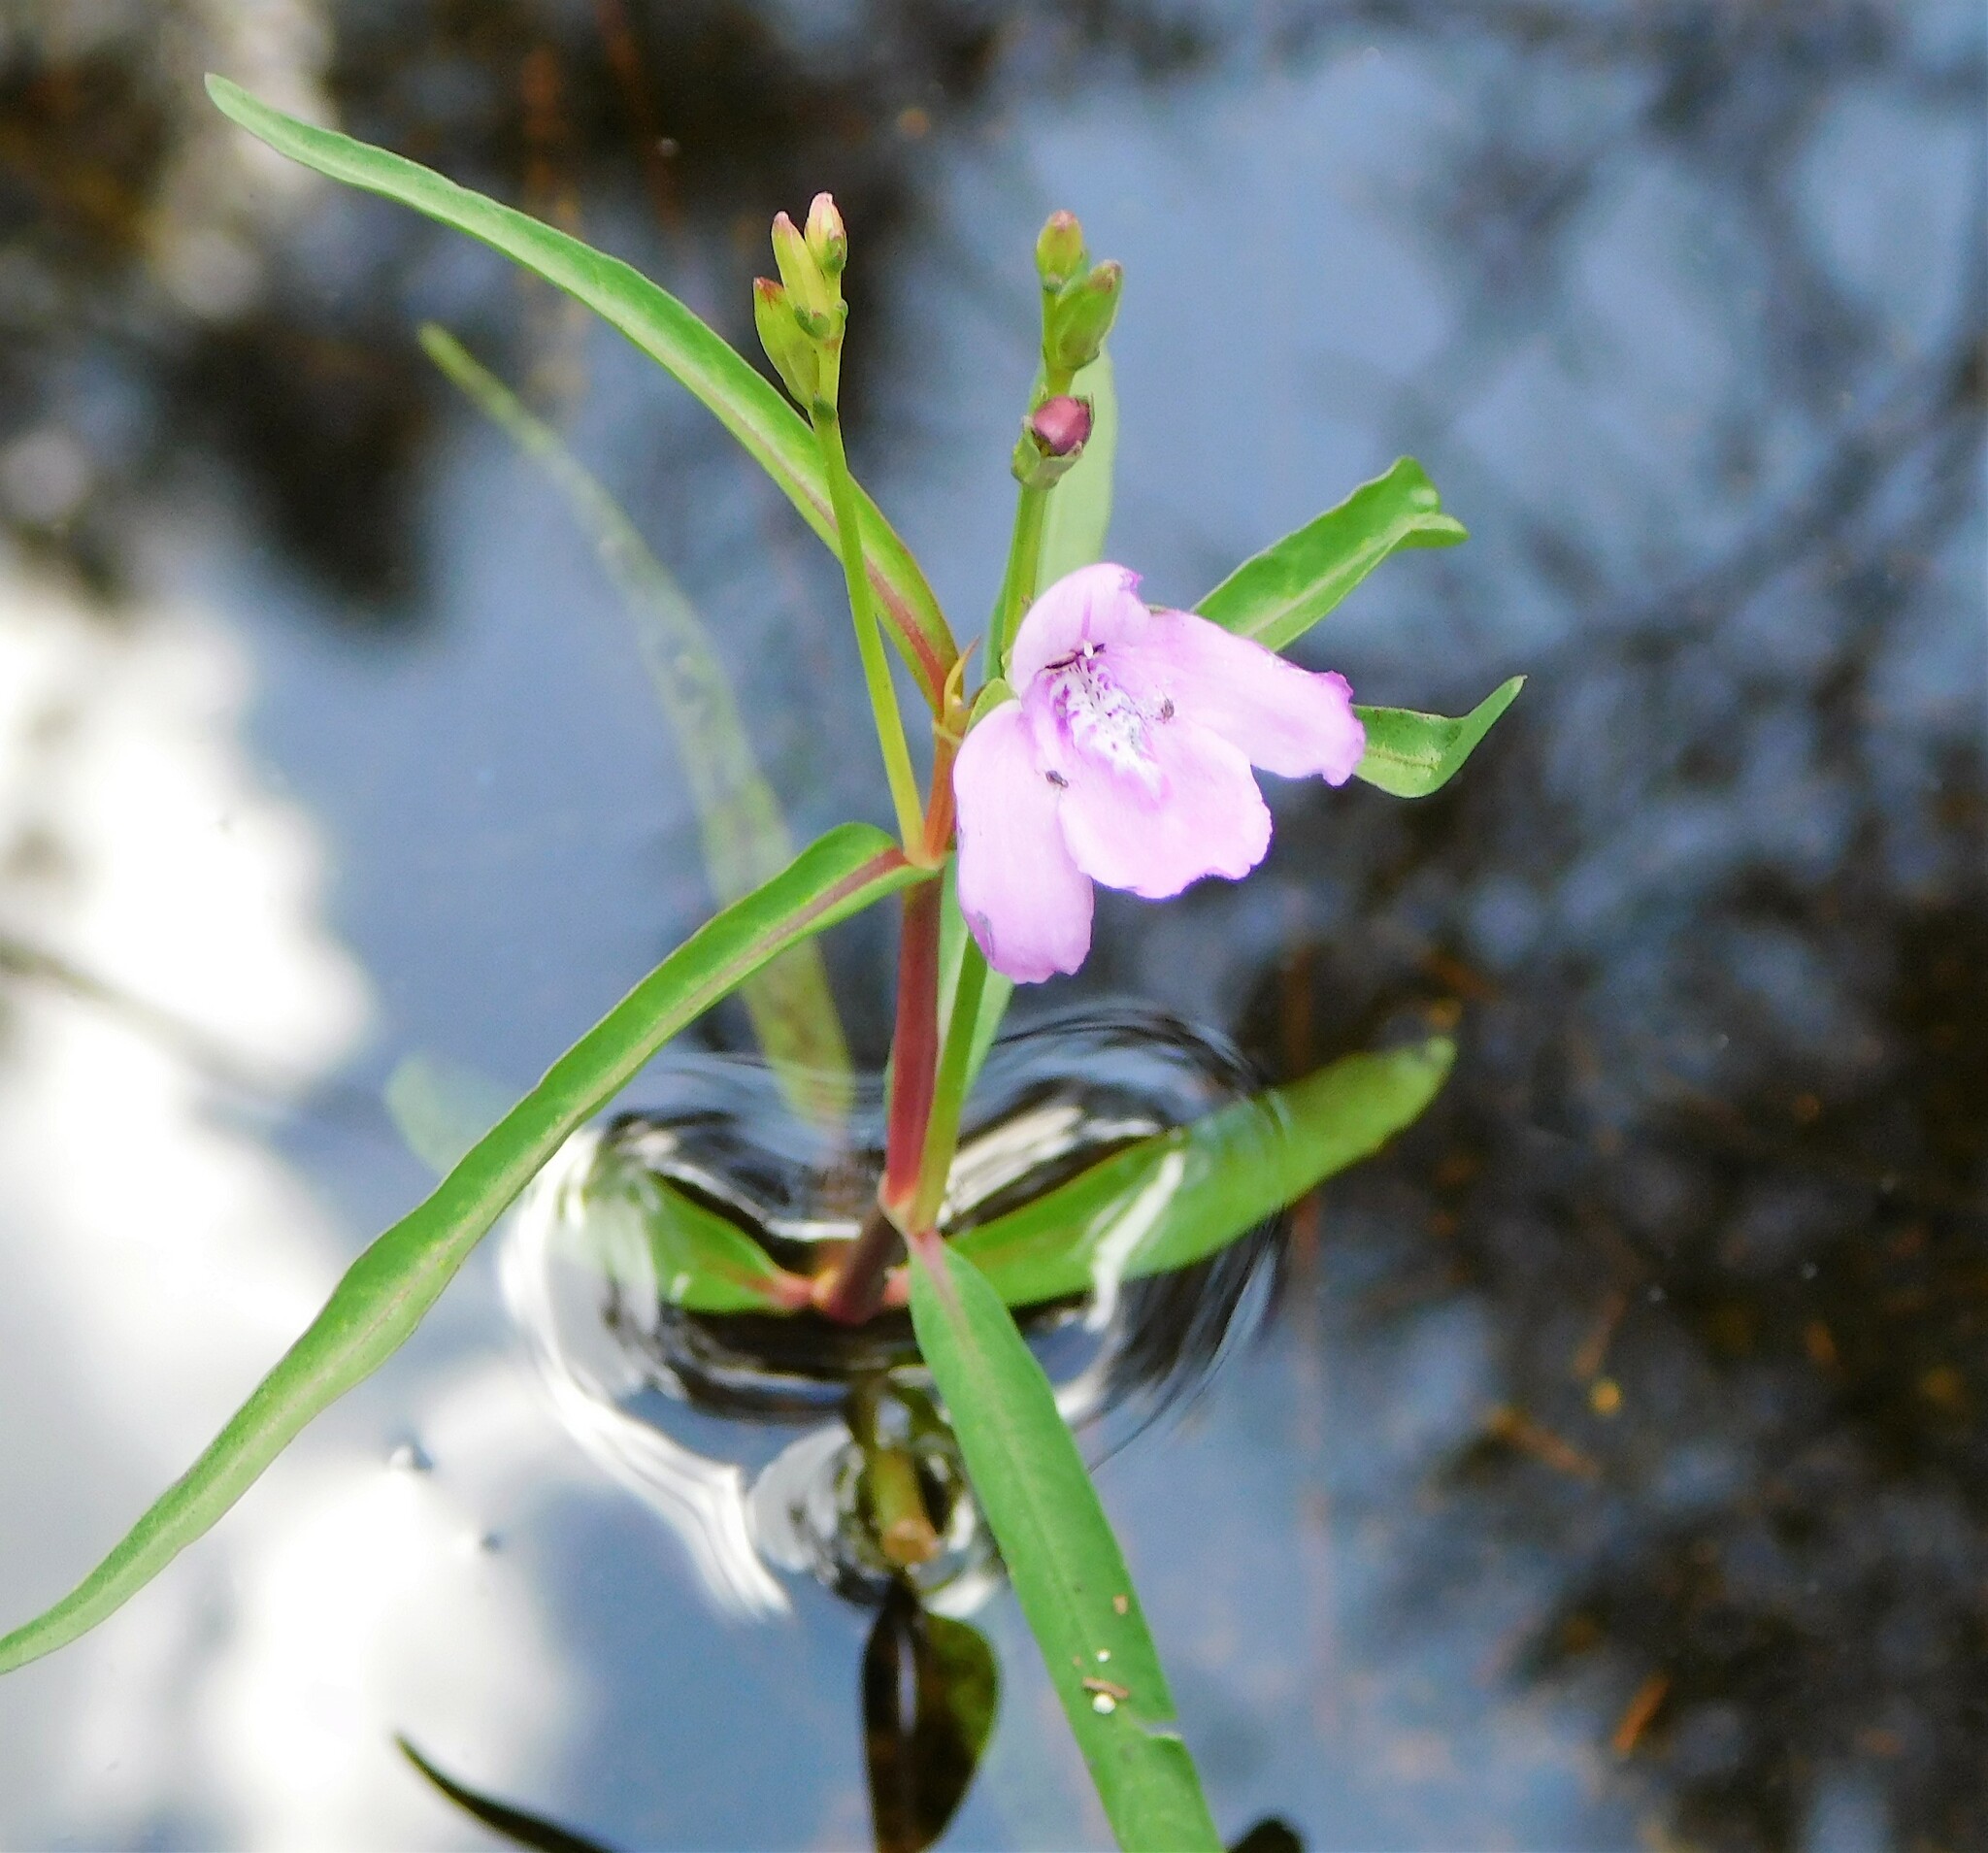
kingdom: Plantae
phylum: Tracheophyta
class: Magnoliopsida
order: Lamiales
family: Acanthaceae
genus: Dianthera
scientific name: Dianthera angusta
